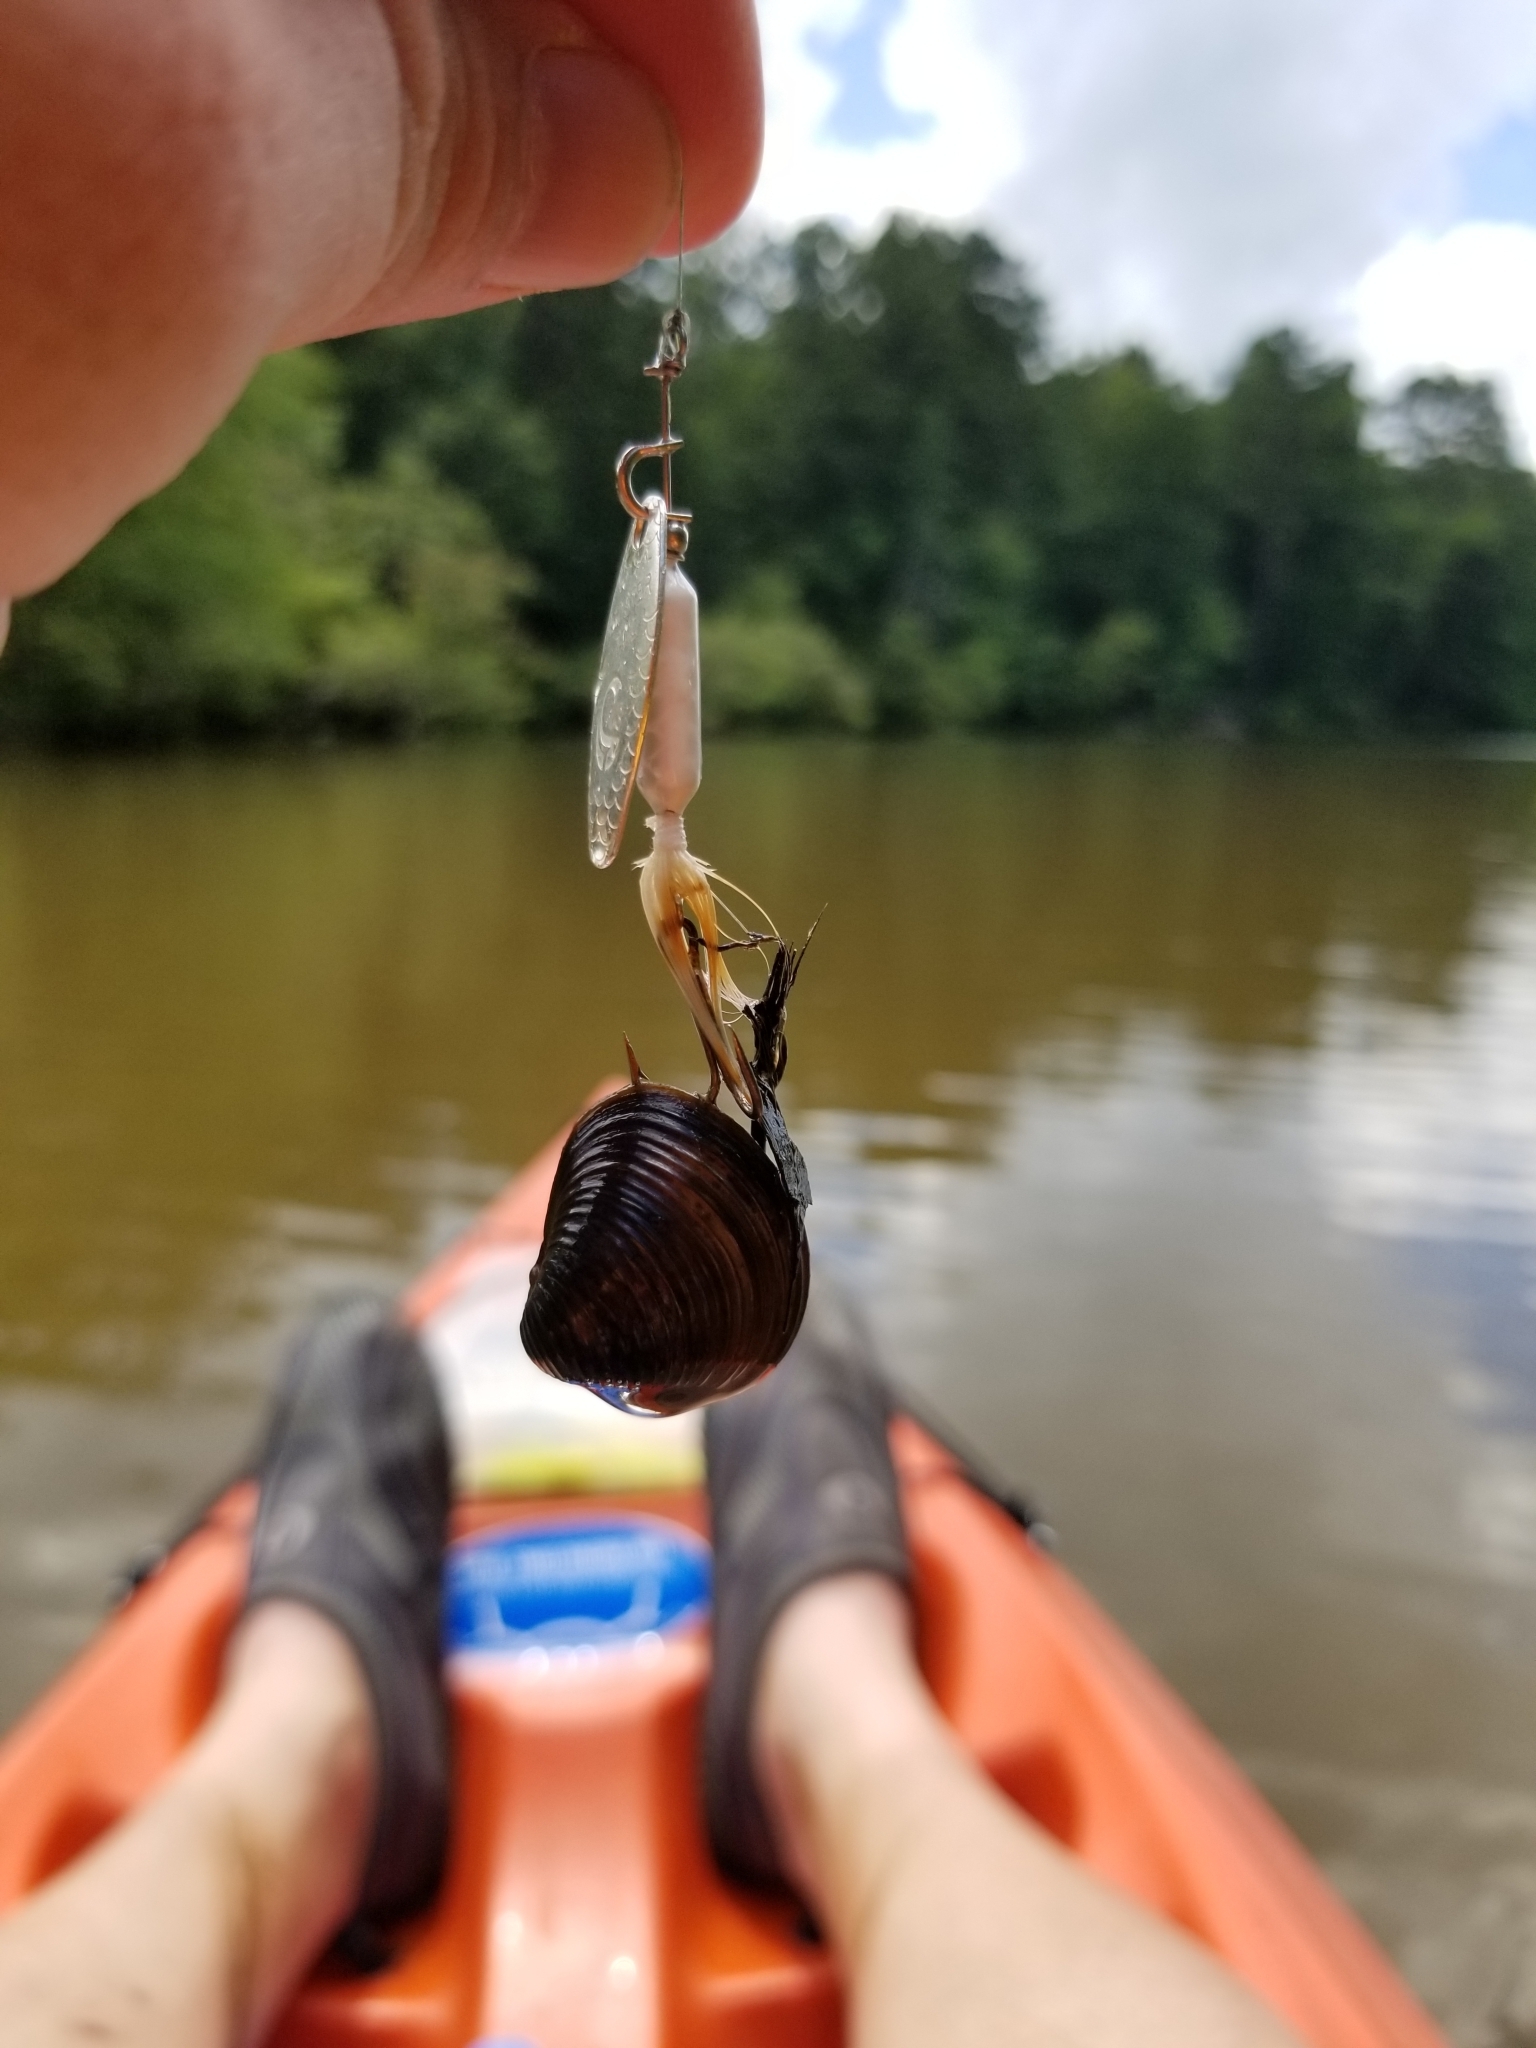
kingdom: Animalia
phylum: Mollusca
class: Bivalvia
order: Venerida
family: Cyrenidae
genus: Corbicula
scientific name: Corbicula fluminea
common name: Asian clam
